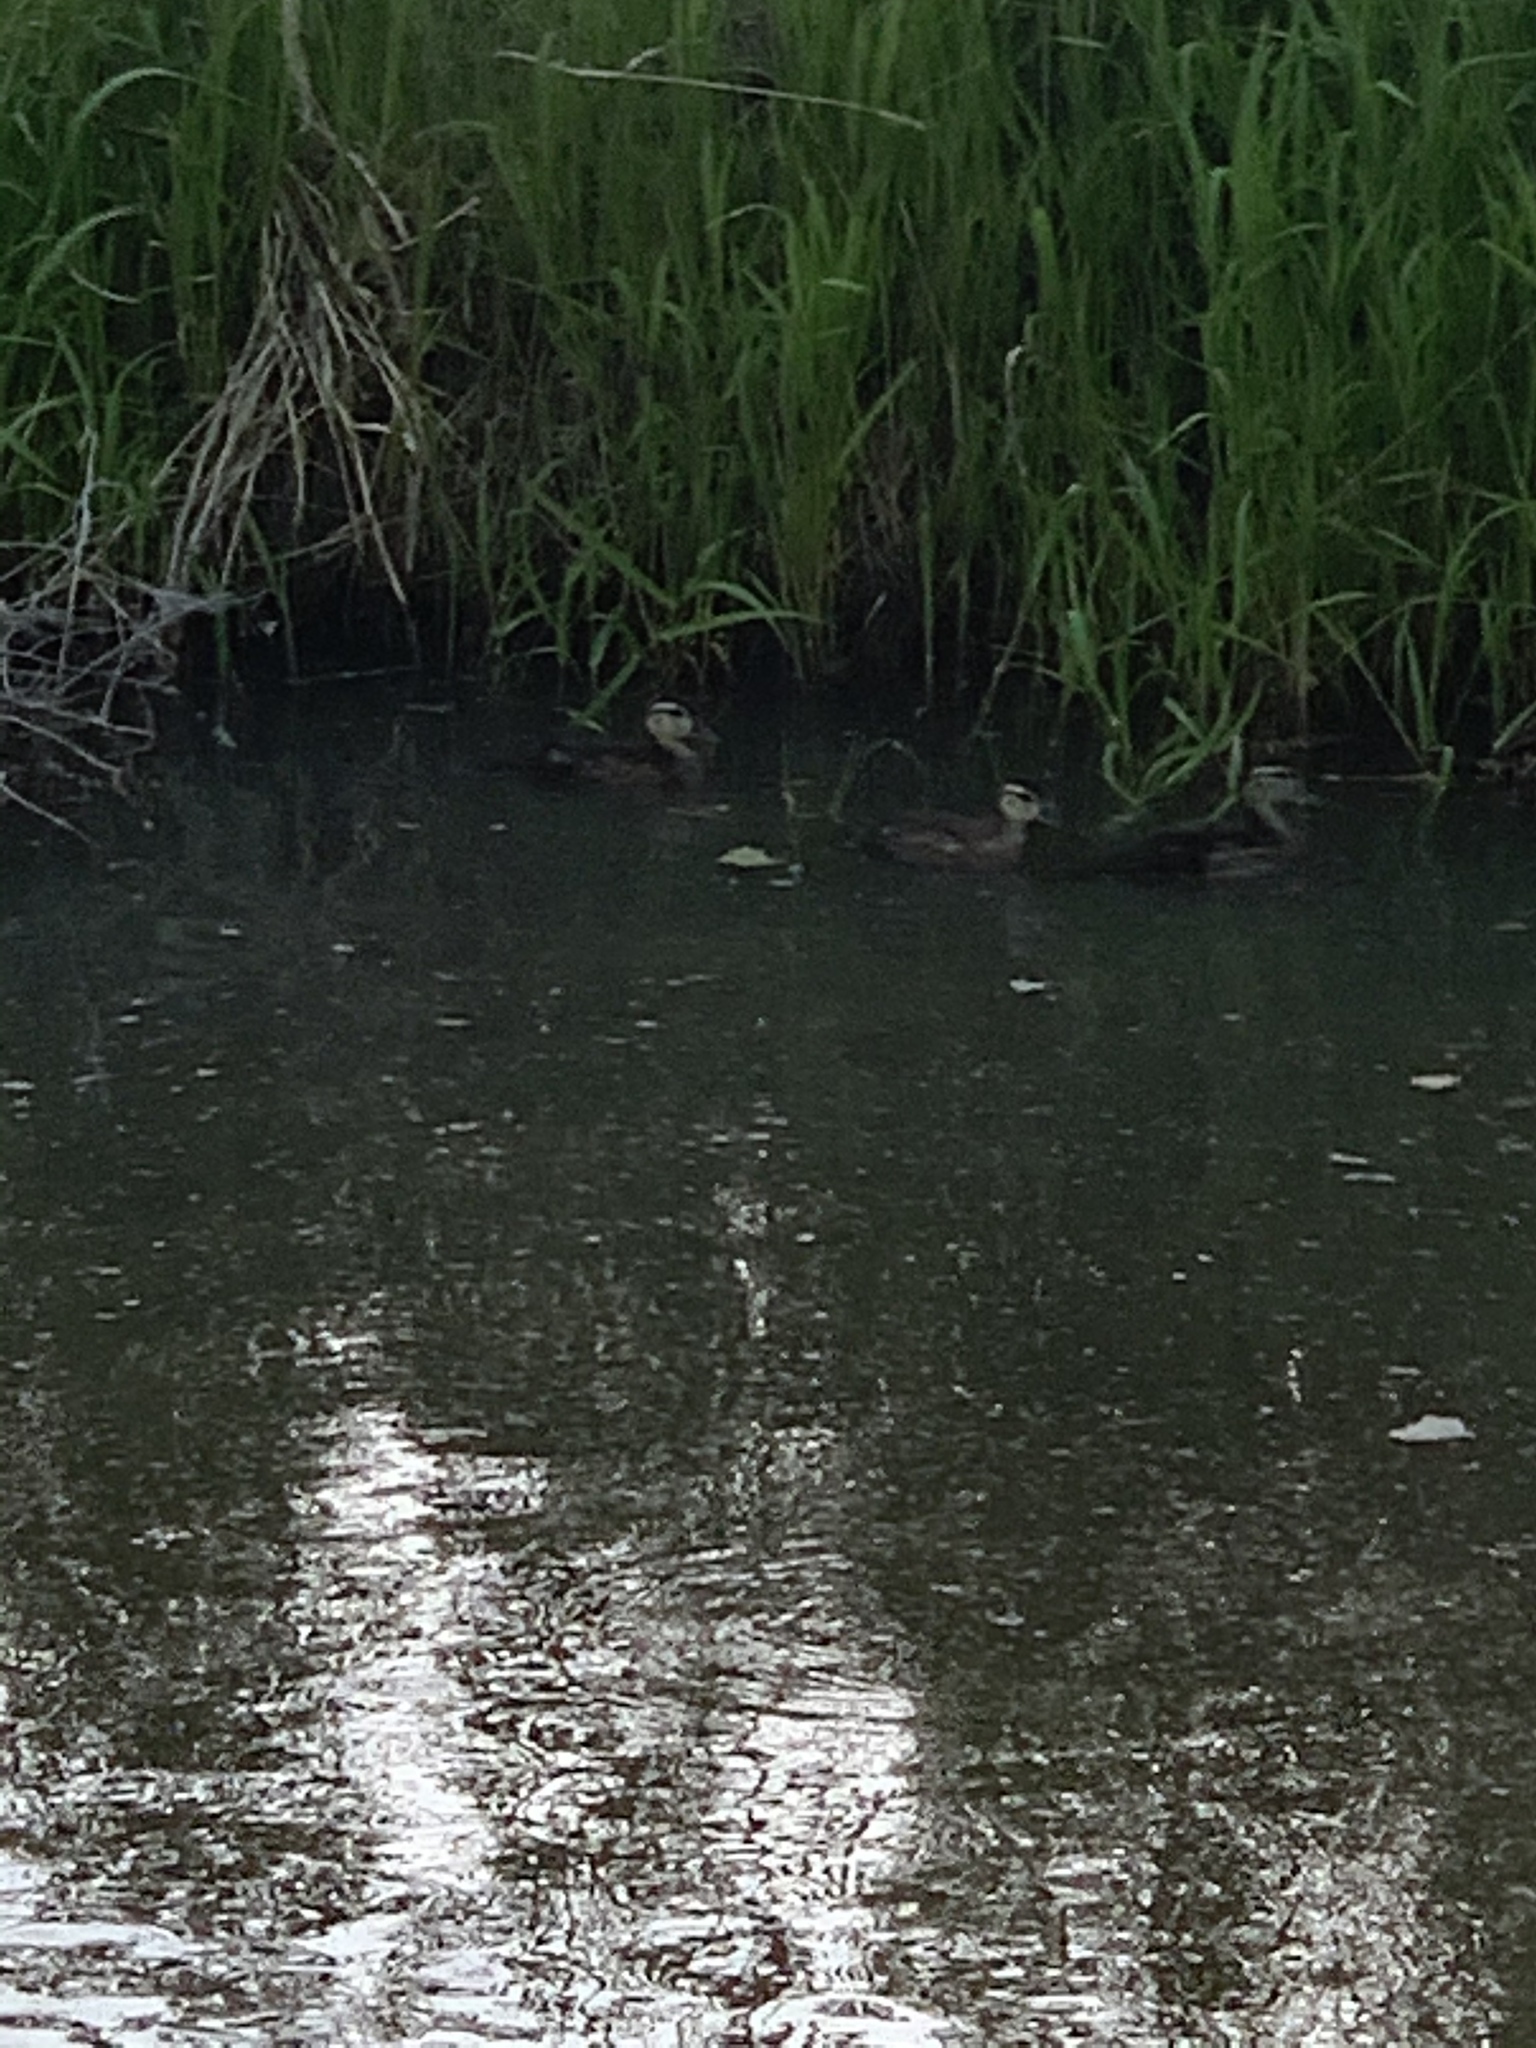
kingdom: Animalia
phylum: Chordata
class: Aves
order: Anseriformes
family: Anatidae
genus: Anas
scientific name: Anas platyrhynchos
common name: Mallard
